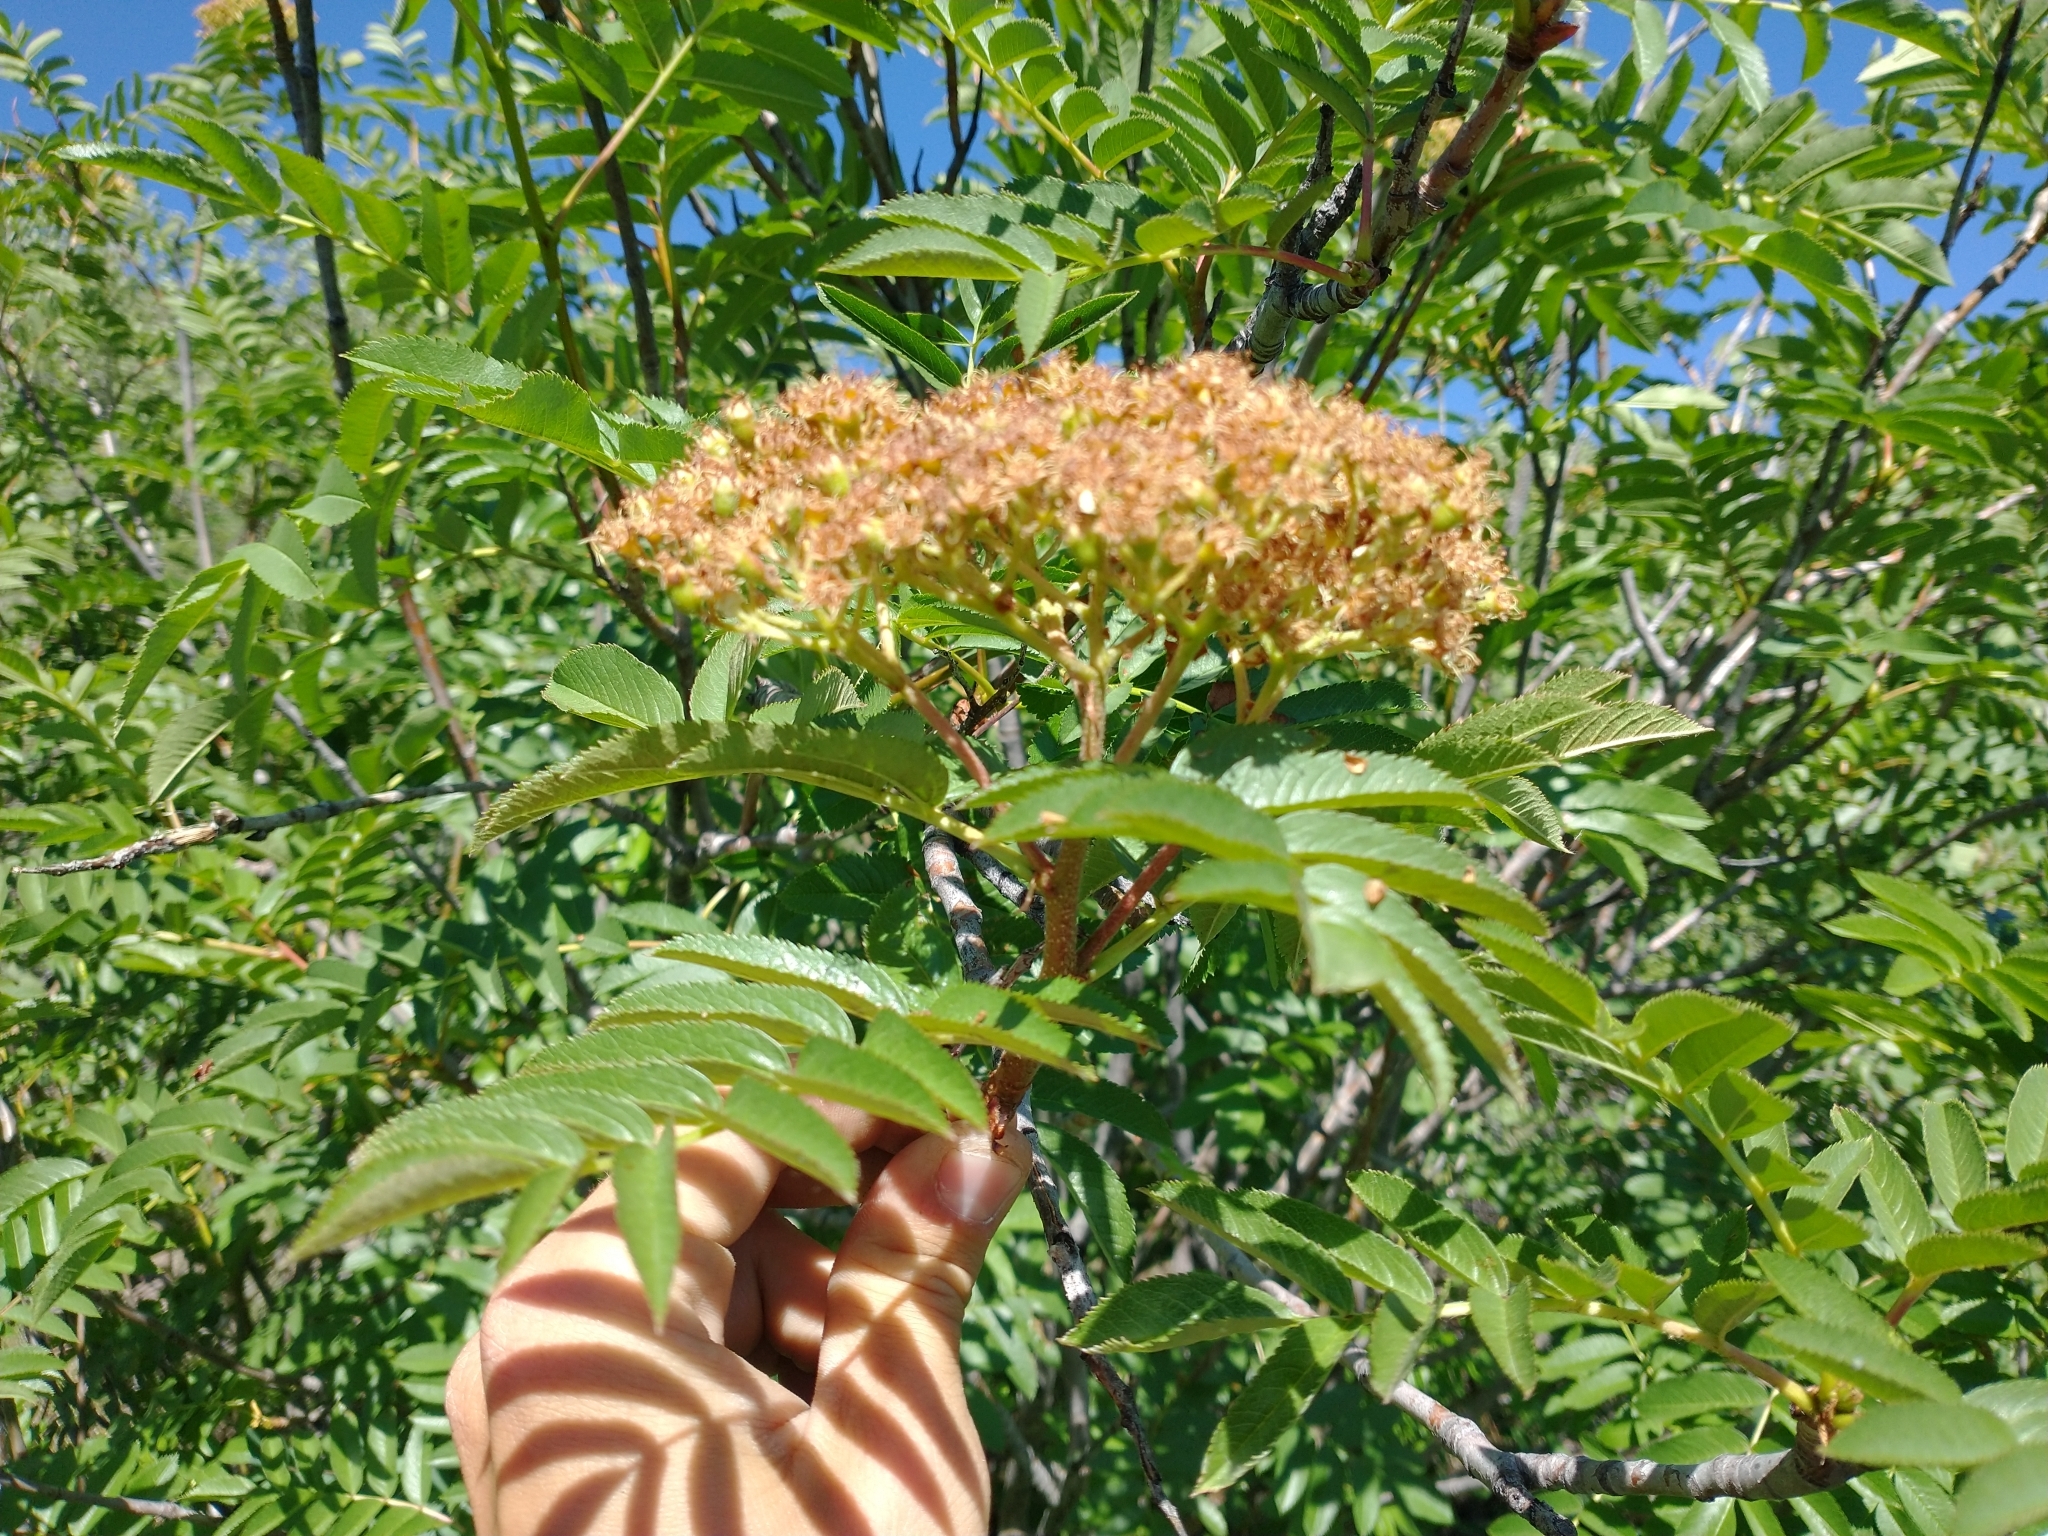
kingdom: Plantae
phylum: Tracheophyta
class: Magnoliopsida
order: Rosales
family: Rosaceae
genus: Sorbus
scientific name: Sorbus scopulina
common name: Greene's mountain-ash
